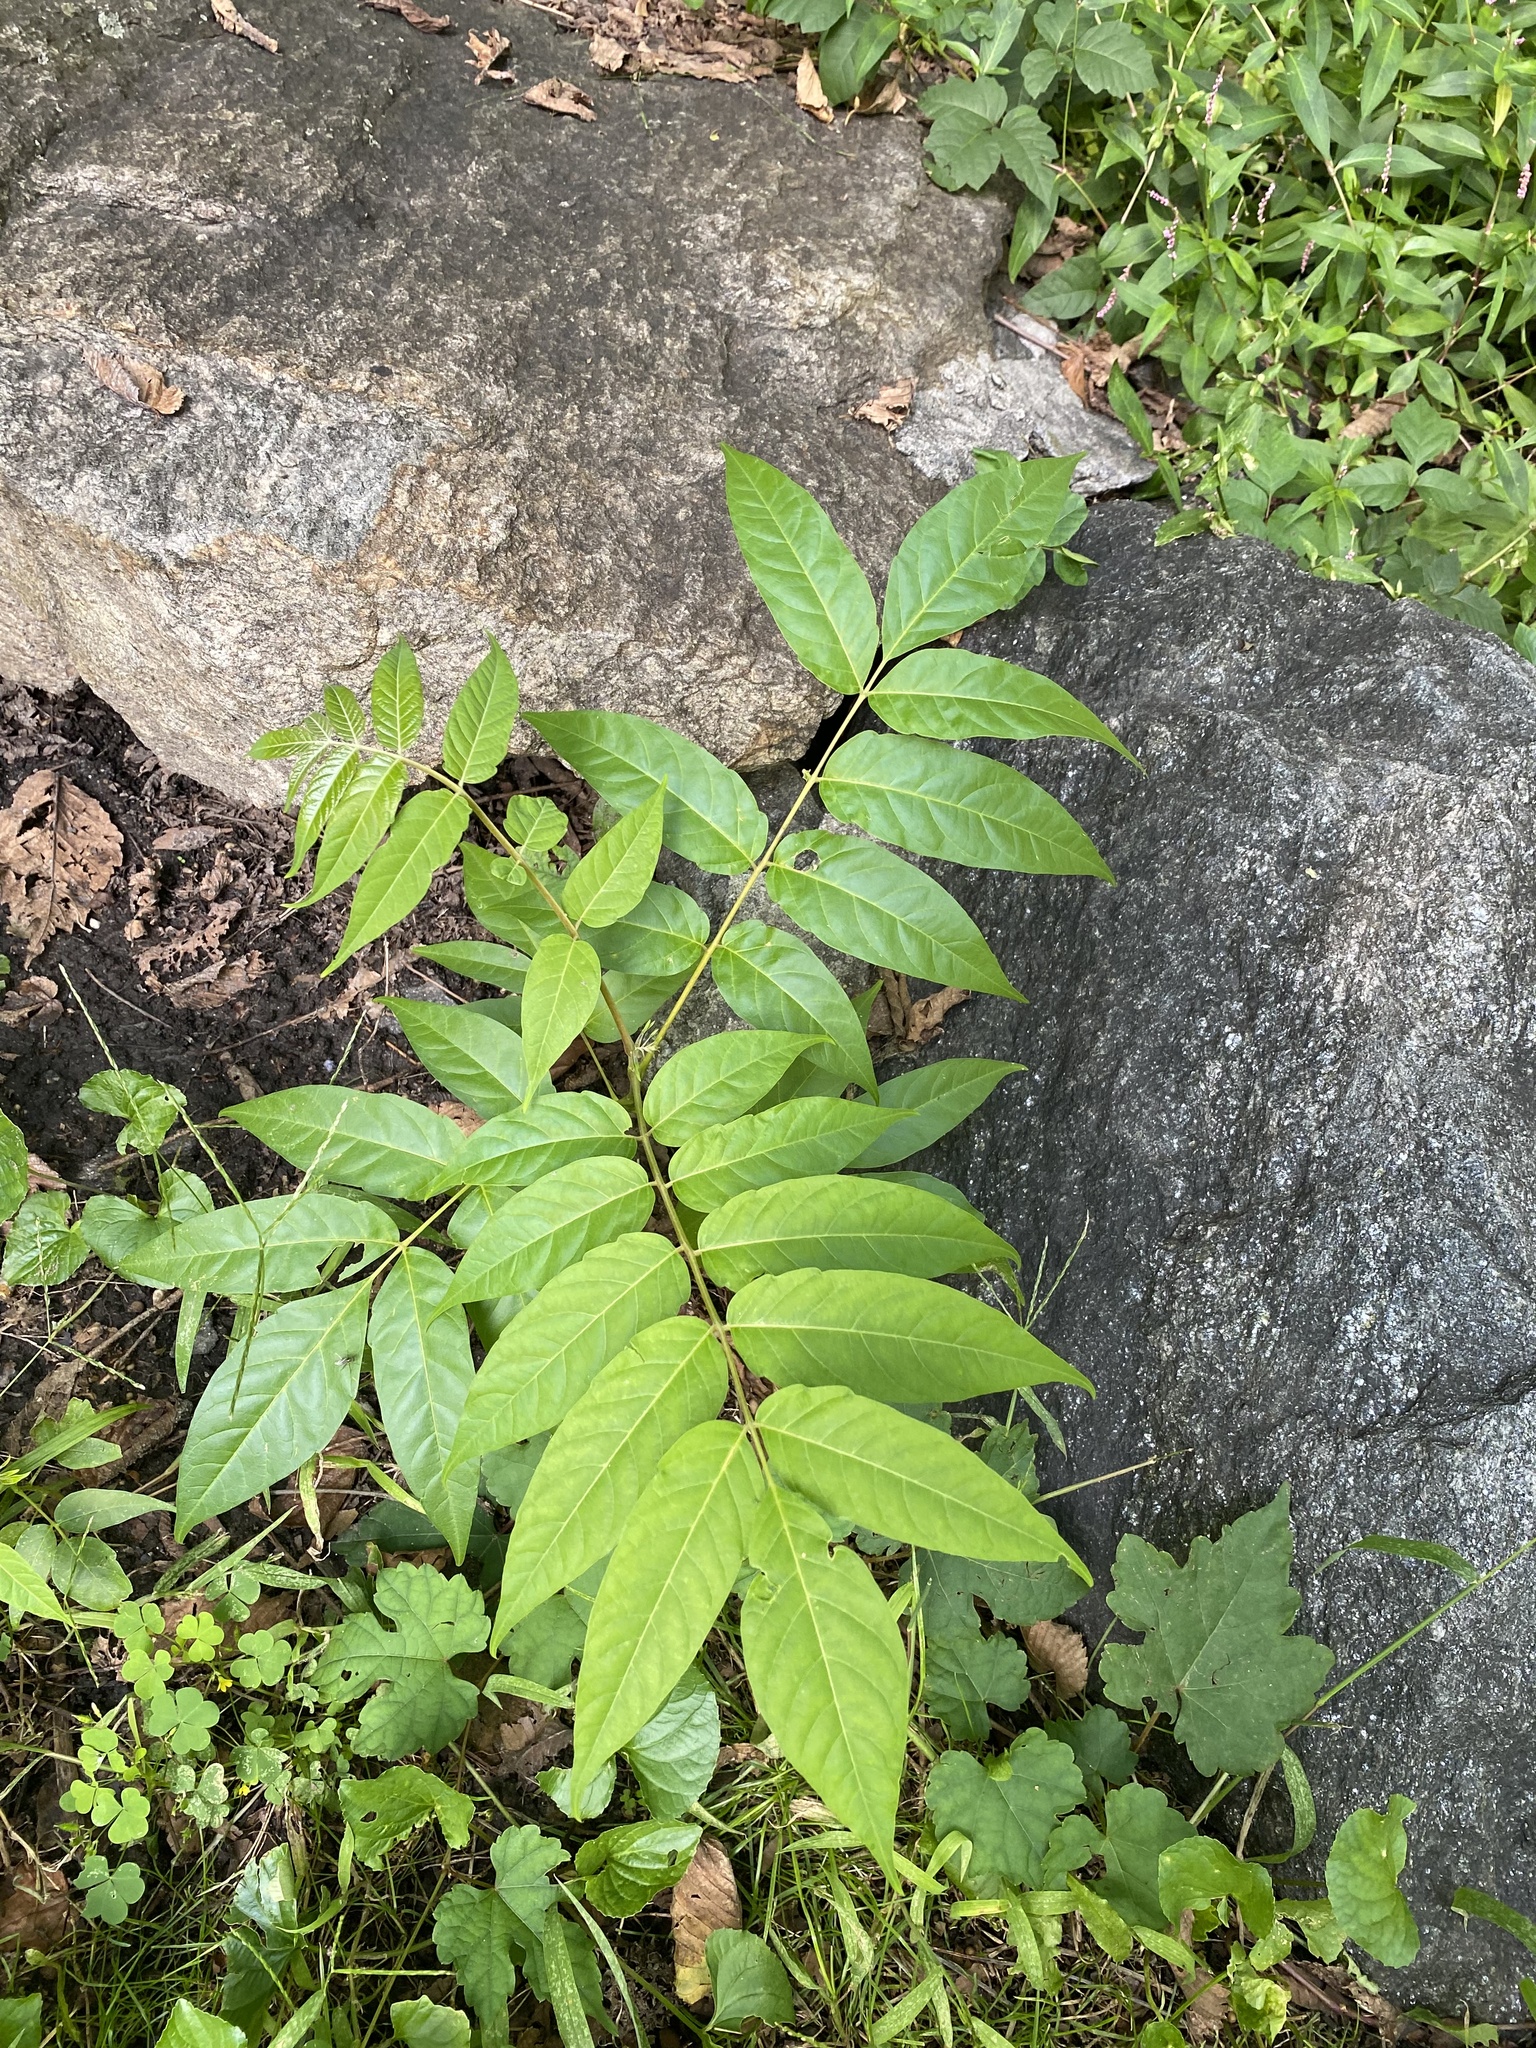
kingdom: Plantae
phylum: Tracheophyta
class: Magnoliopsida
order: Sapindales
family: Simaroubaceae
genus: Ailanthus
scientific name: Ailanthus altissima
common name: Tree-of-heaven
